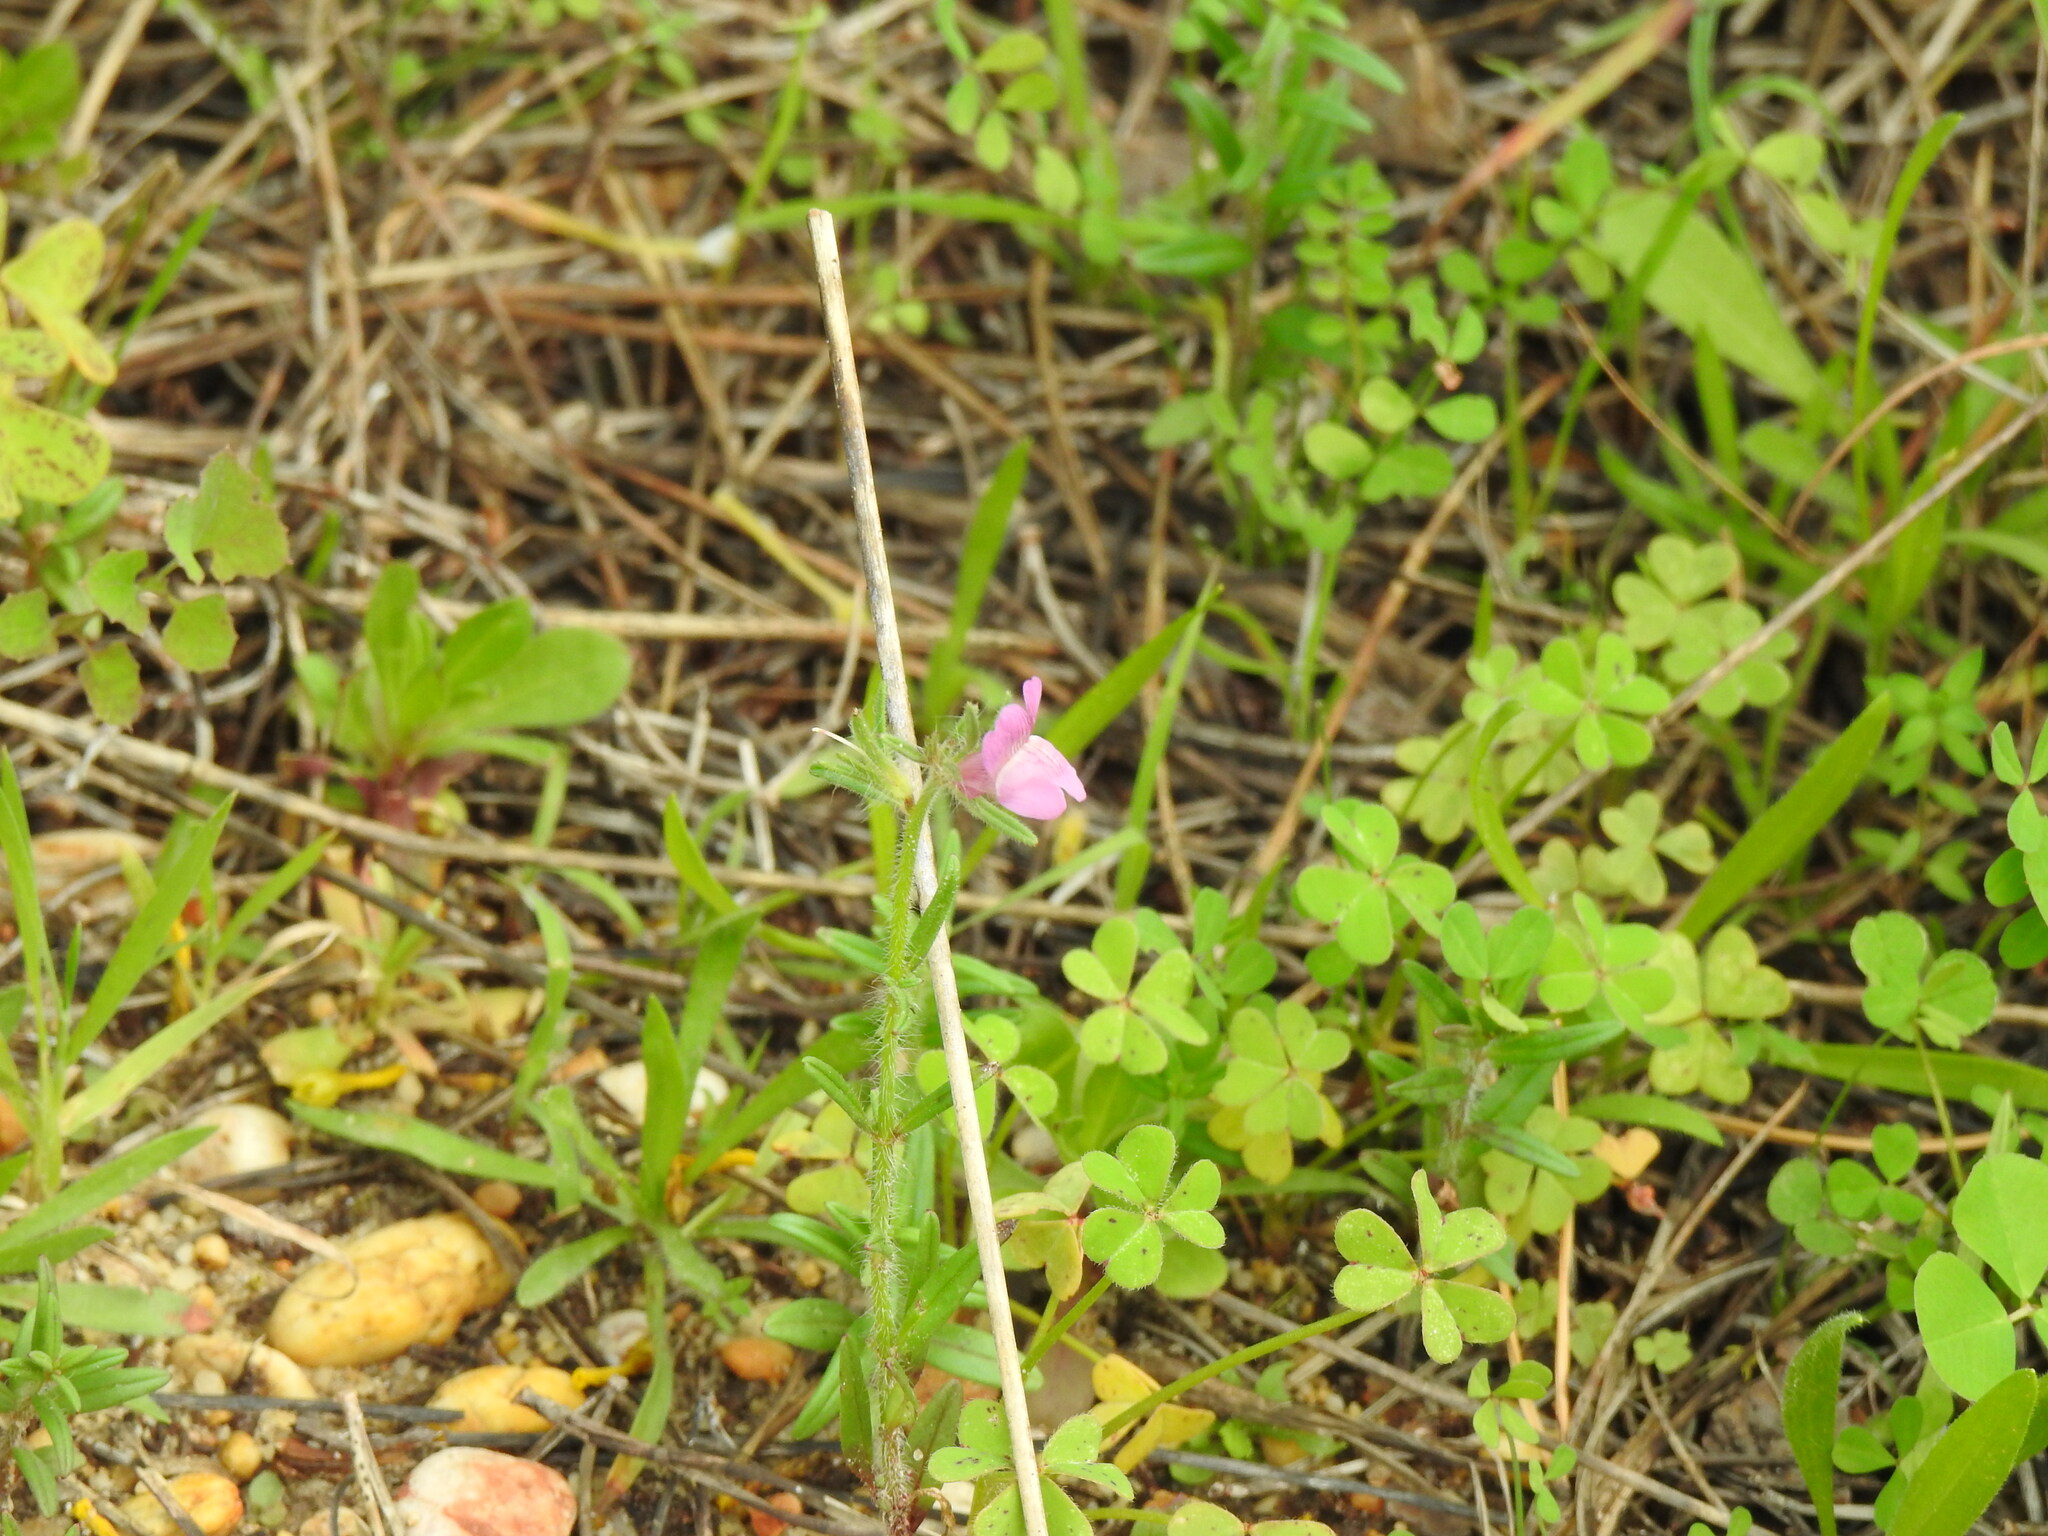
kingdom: Plantae
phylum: Tracheophyta
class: Magnoliopsida
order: Lamiales
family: Plantaginaceae
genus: Misopates
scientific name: Misopates orontium
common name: Weasel's-snout
